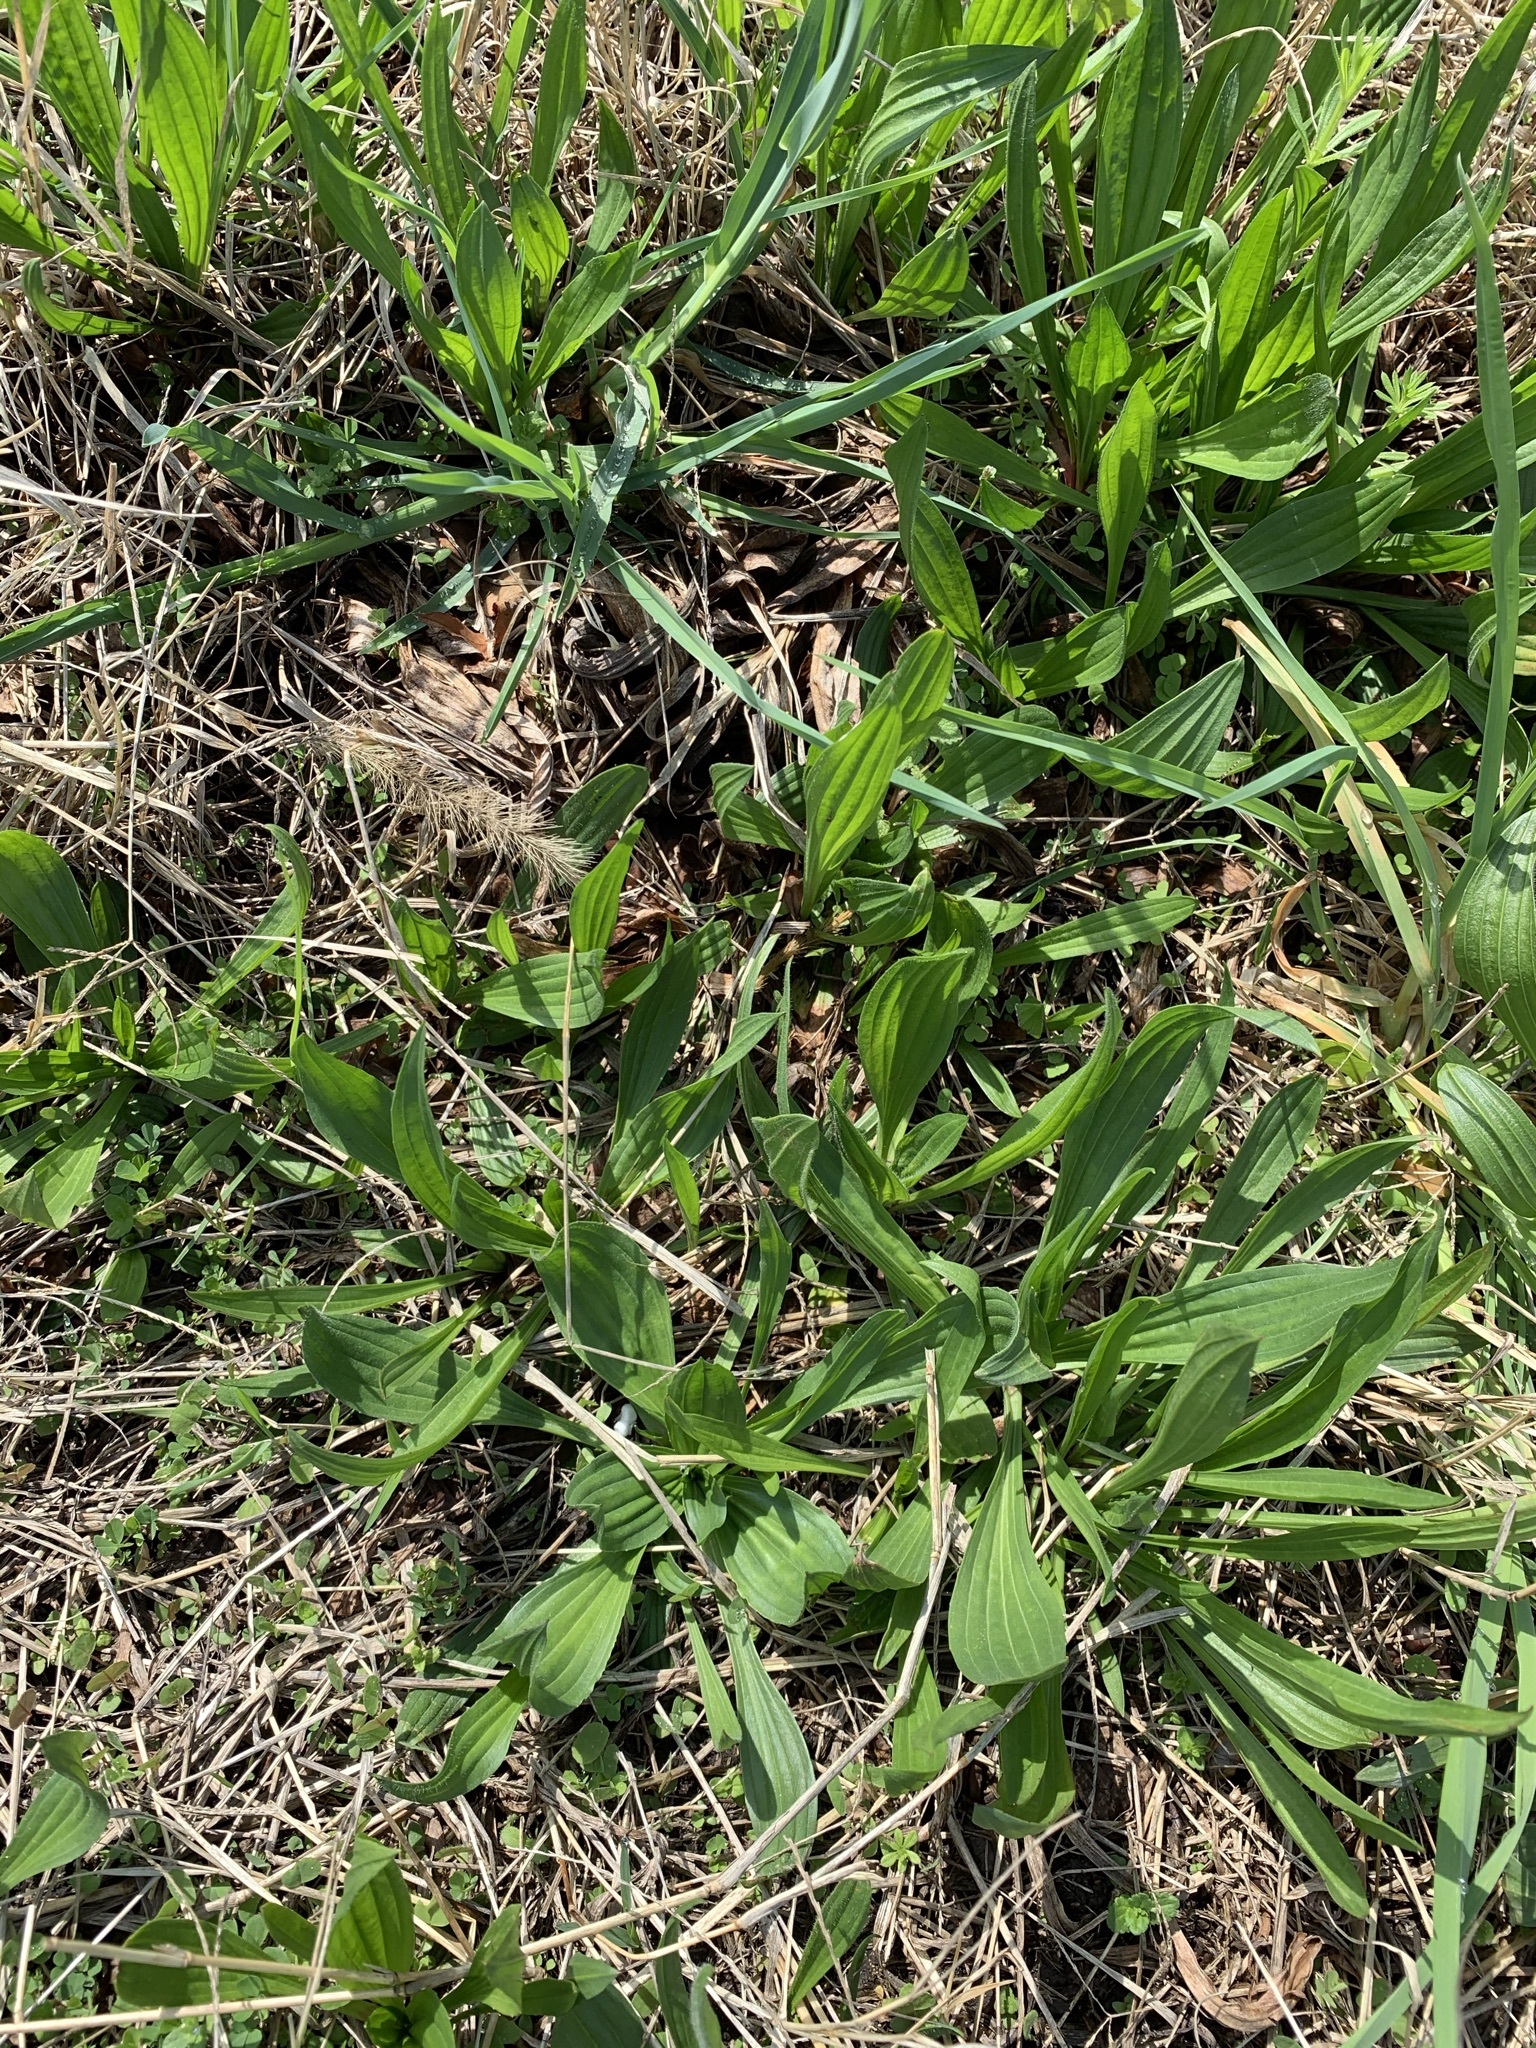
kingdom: Plantae
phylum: Tracheophyta
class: Magnoliopsida
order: Lamiales
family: Plantaginaceae
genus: Plantago
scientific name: Plantago lanceolata
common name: Ribwort plantain
